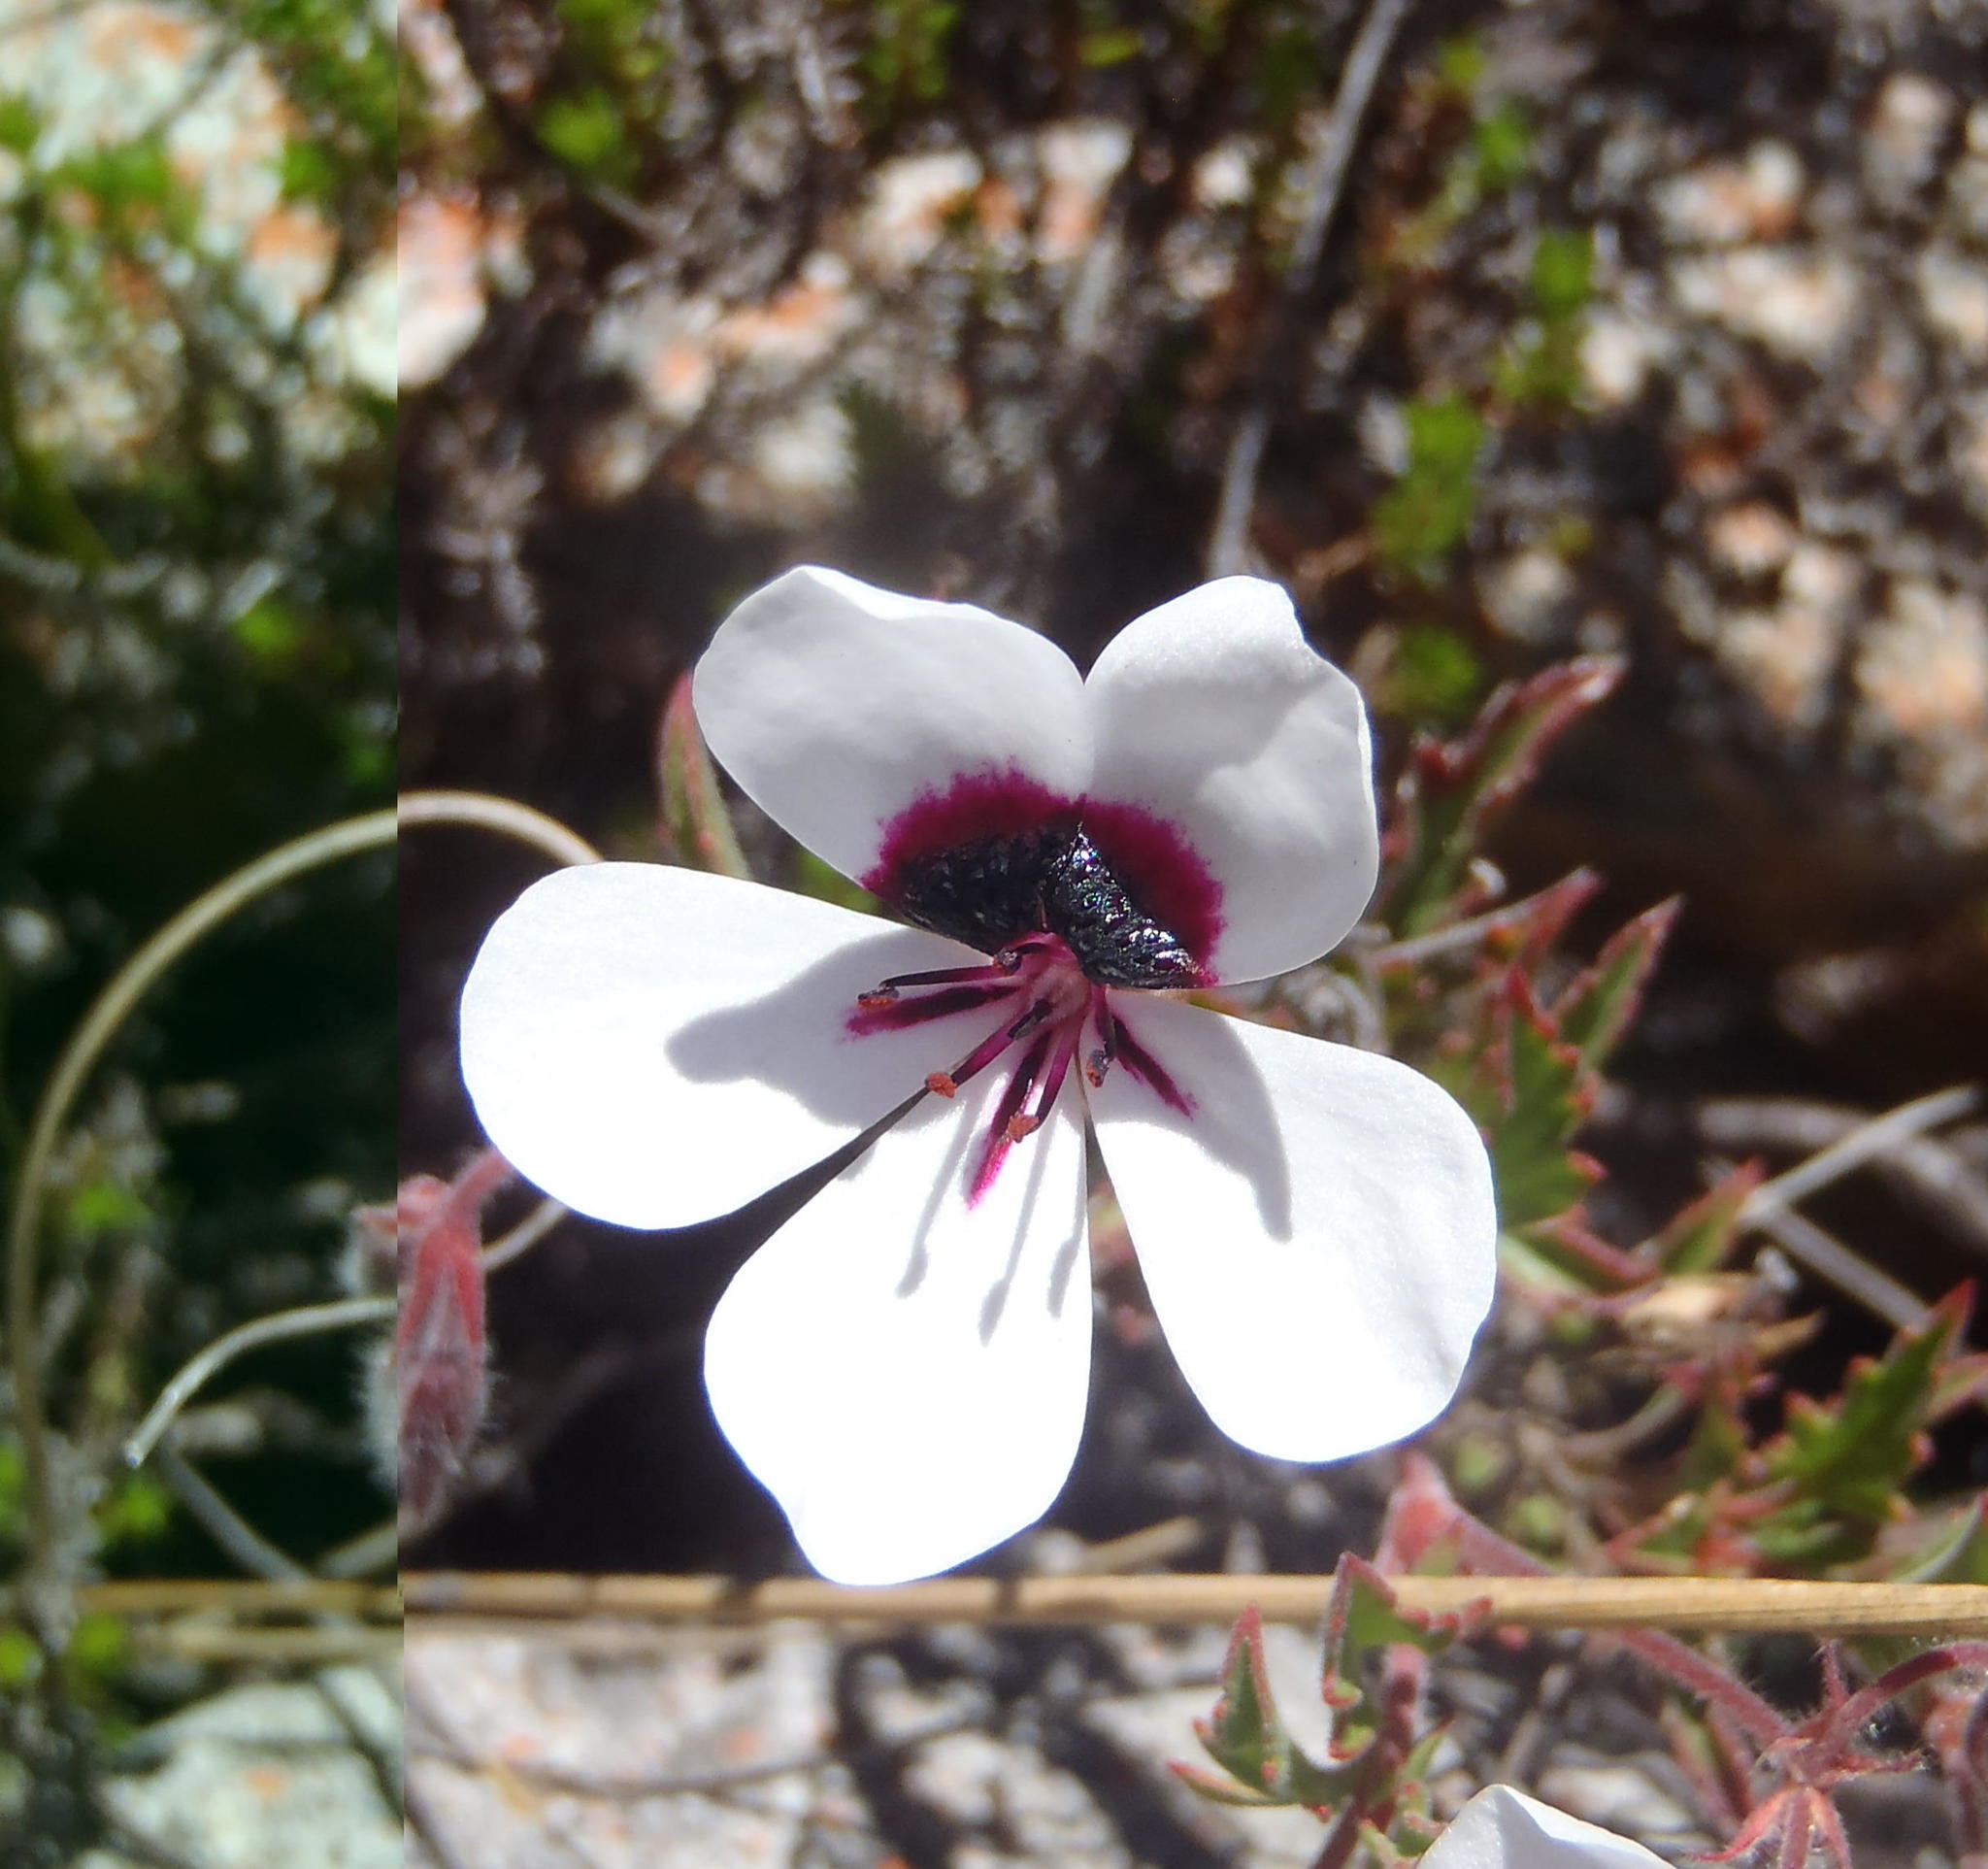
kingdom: Plantae
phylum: Tracheophyta
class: Magnoliopsida
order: Geraniales
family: Geraniaceae
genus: Pelargonium
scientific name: Pelargonium tricolor
